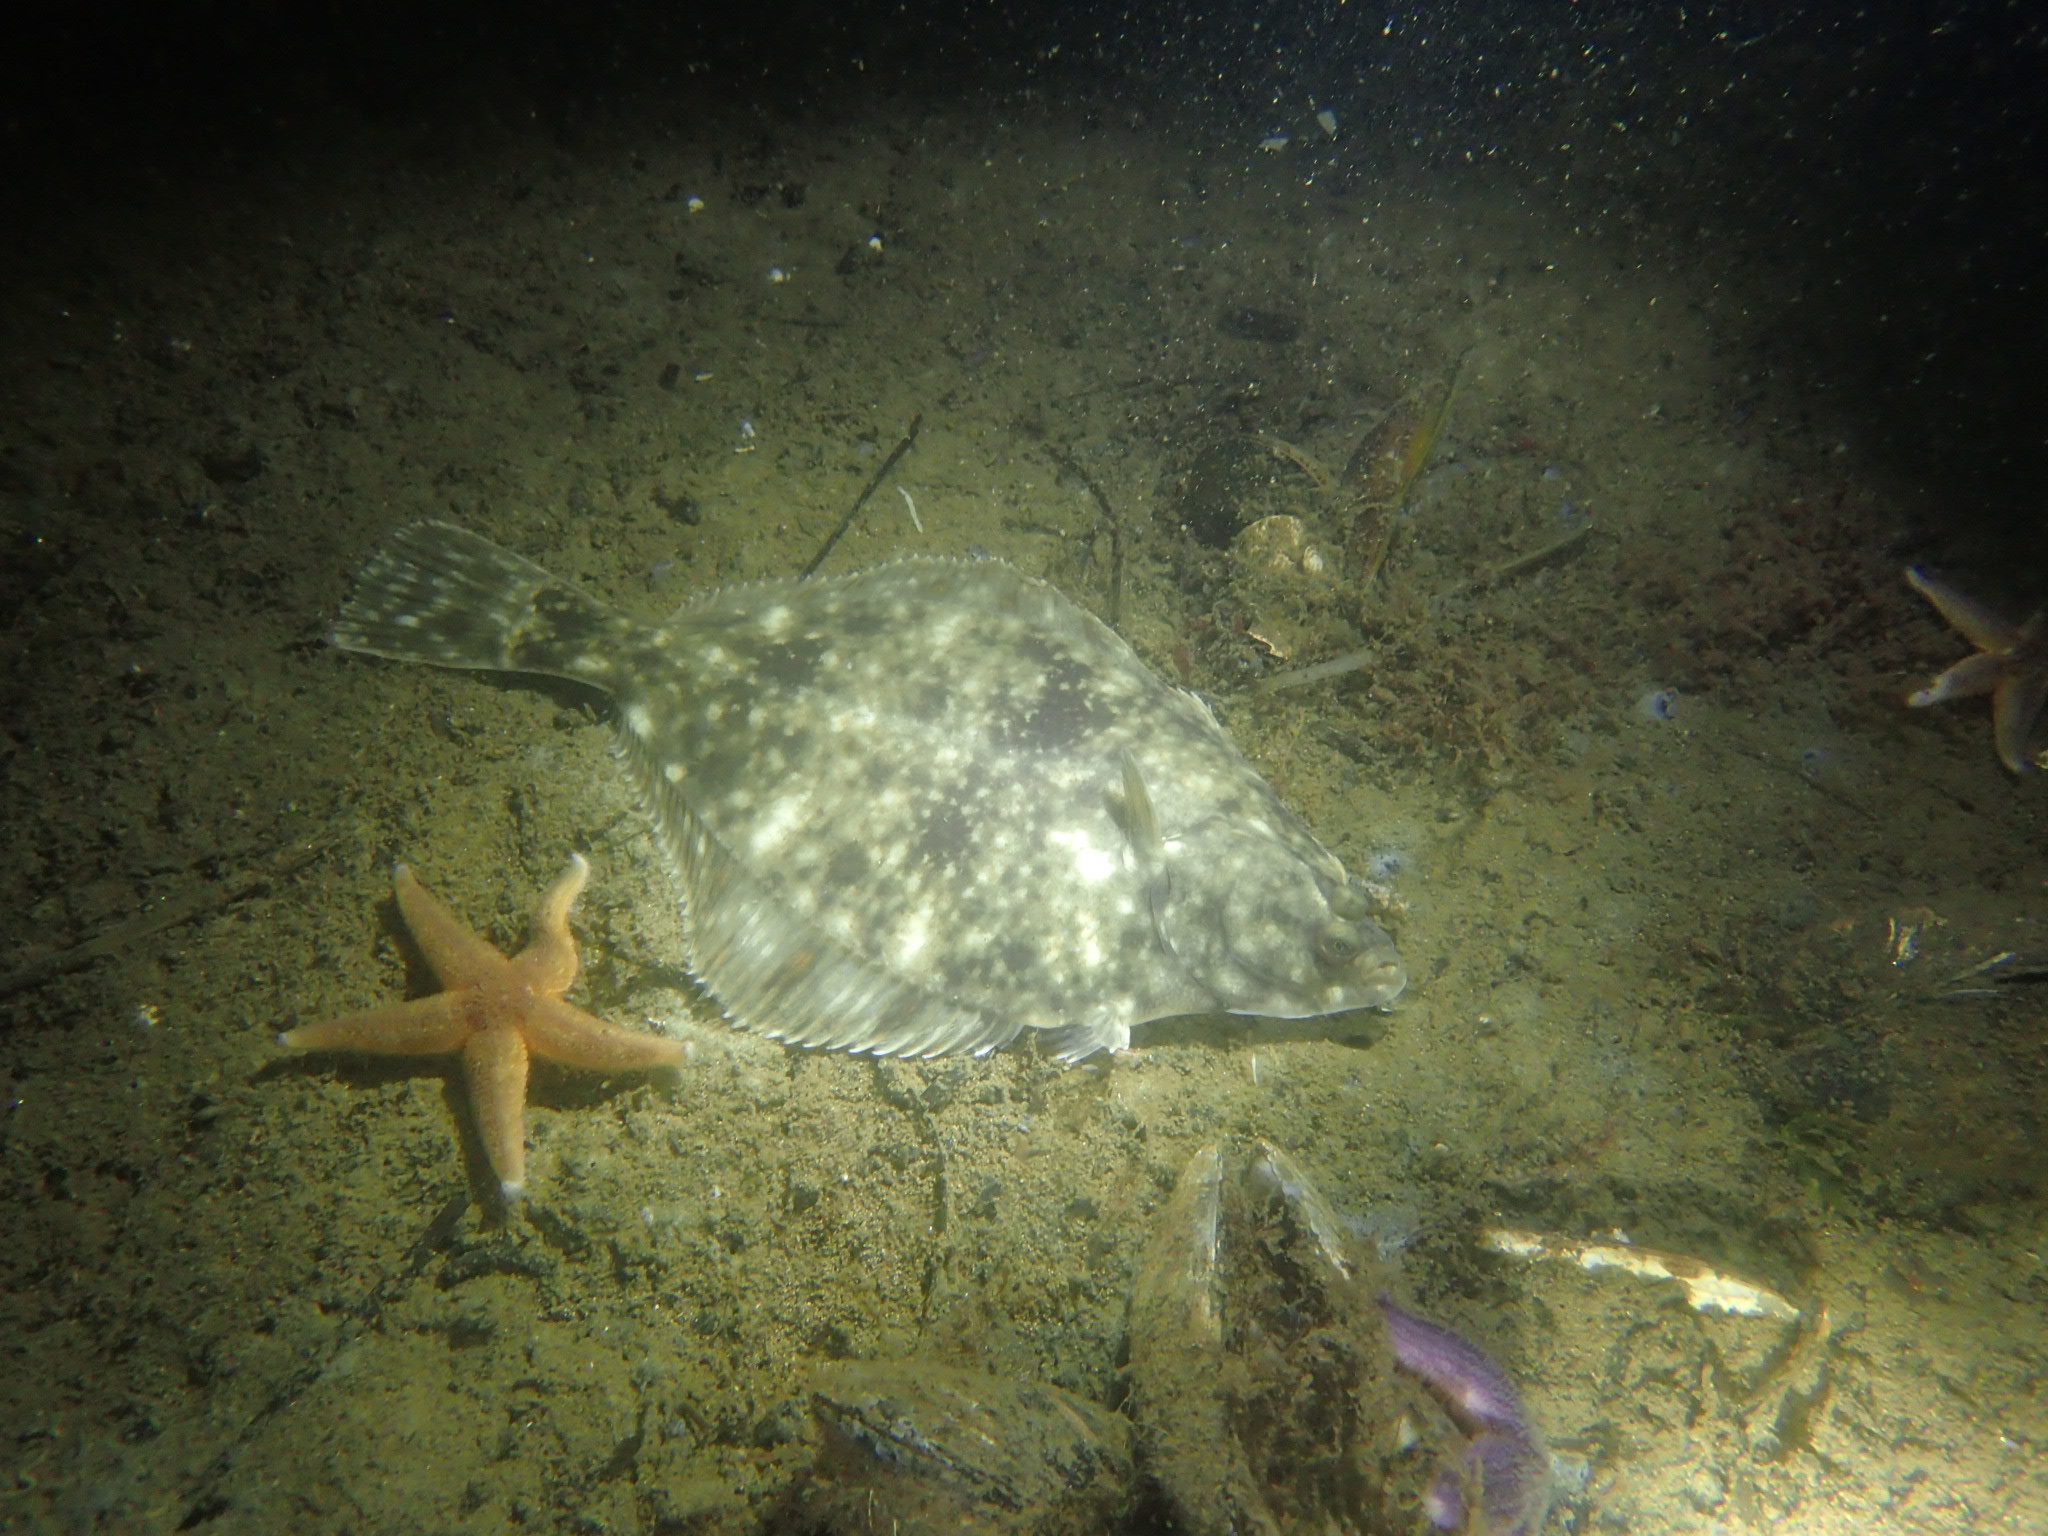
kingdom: Animalia
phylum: Chordata
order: Pleuronectiformes
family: Pleuronectidae
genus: Platichthys
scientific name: Platichthys flesus
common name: European flounder
